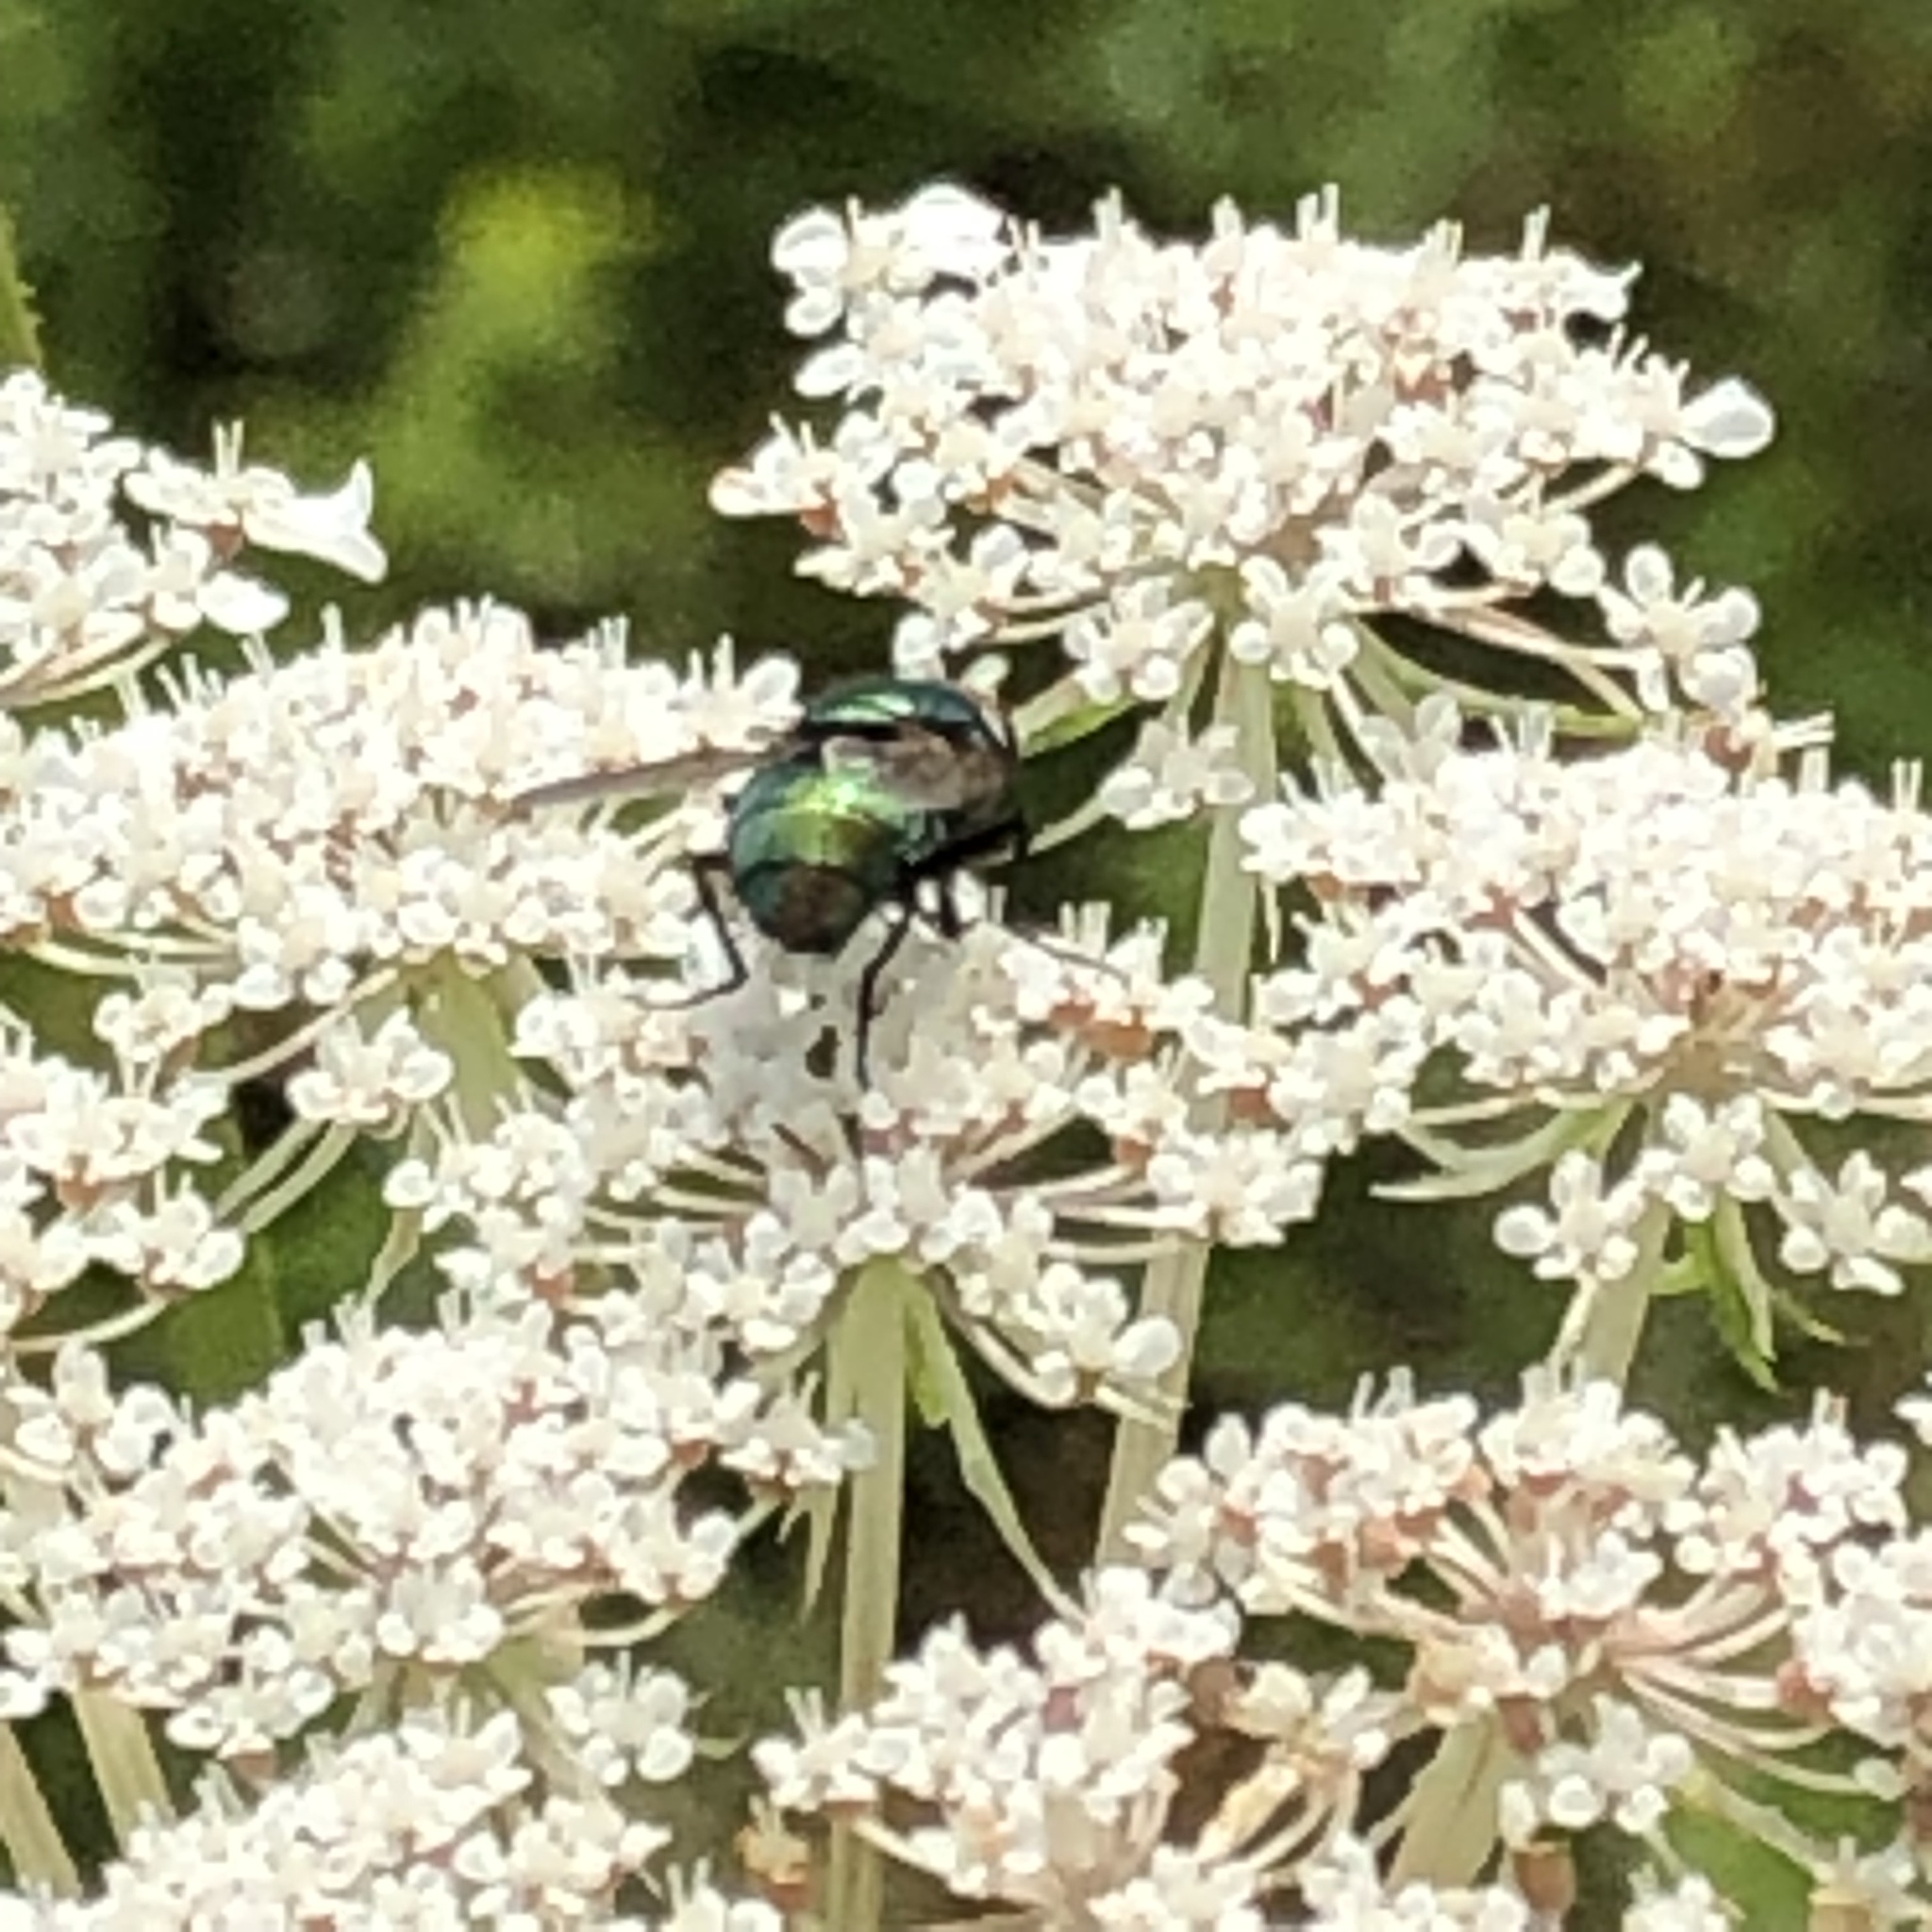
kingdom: Animalia
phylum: Arthropoda
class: Insecta
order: Diptera
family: Calliphoridae
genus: Lucilia
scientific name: Lucilia
